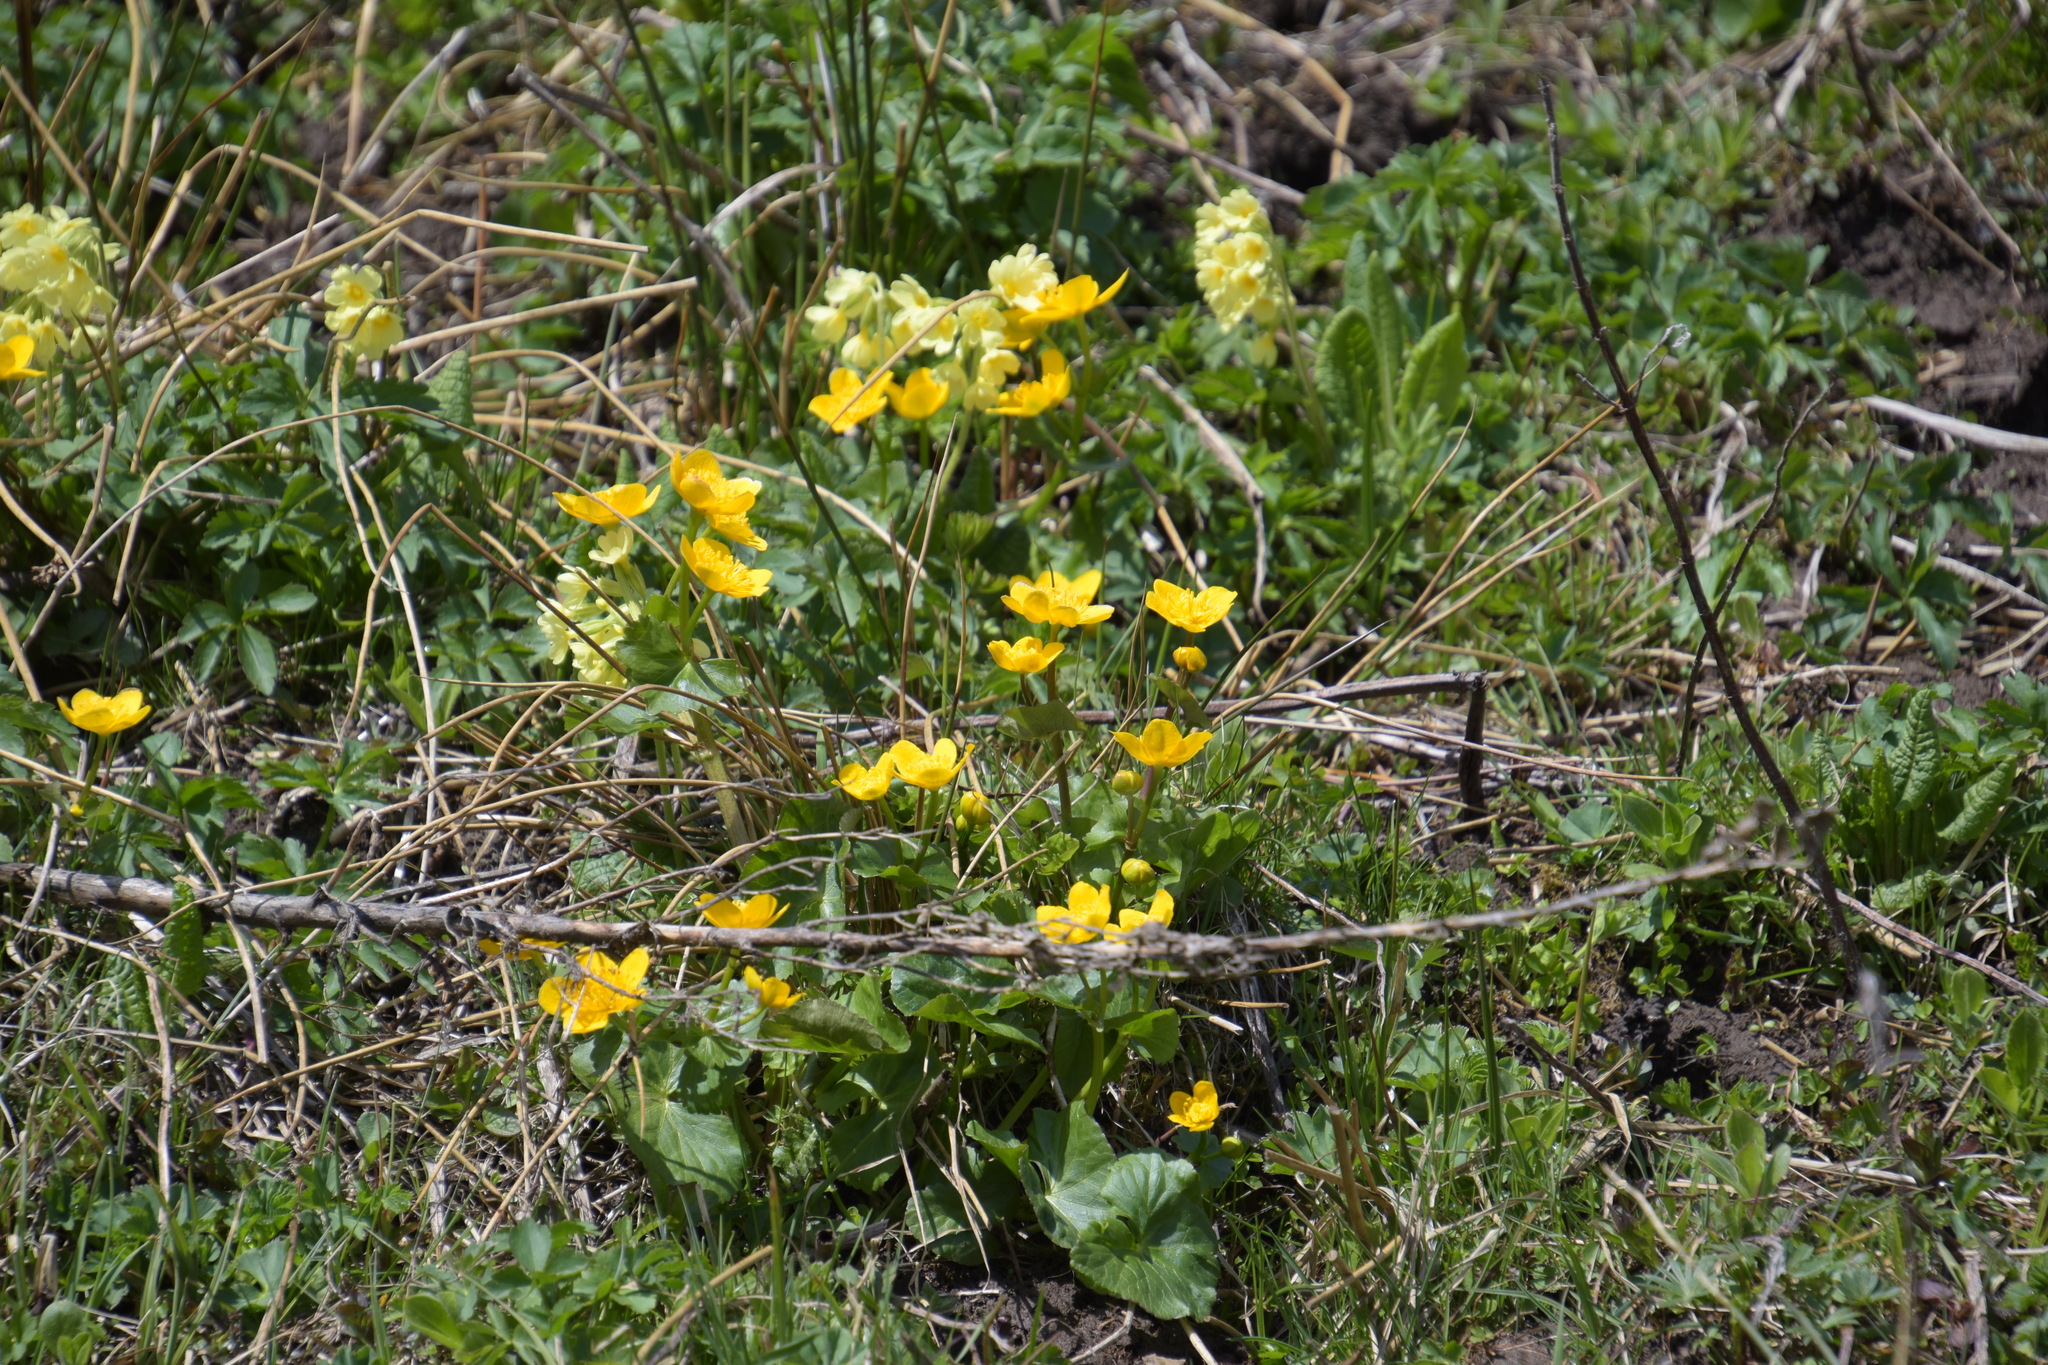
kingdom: Plantae
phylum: Tracheophyta
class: Magnoliopsida
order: Ranunculales
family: Ranunculaceae
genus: Caltha
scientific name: Caltha palustris
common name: Marsh marigold
